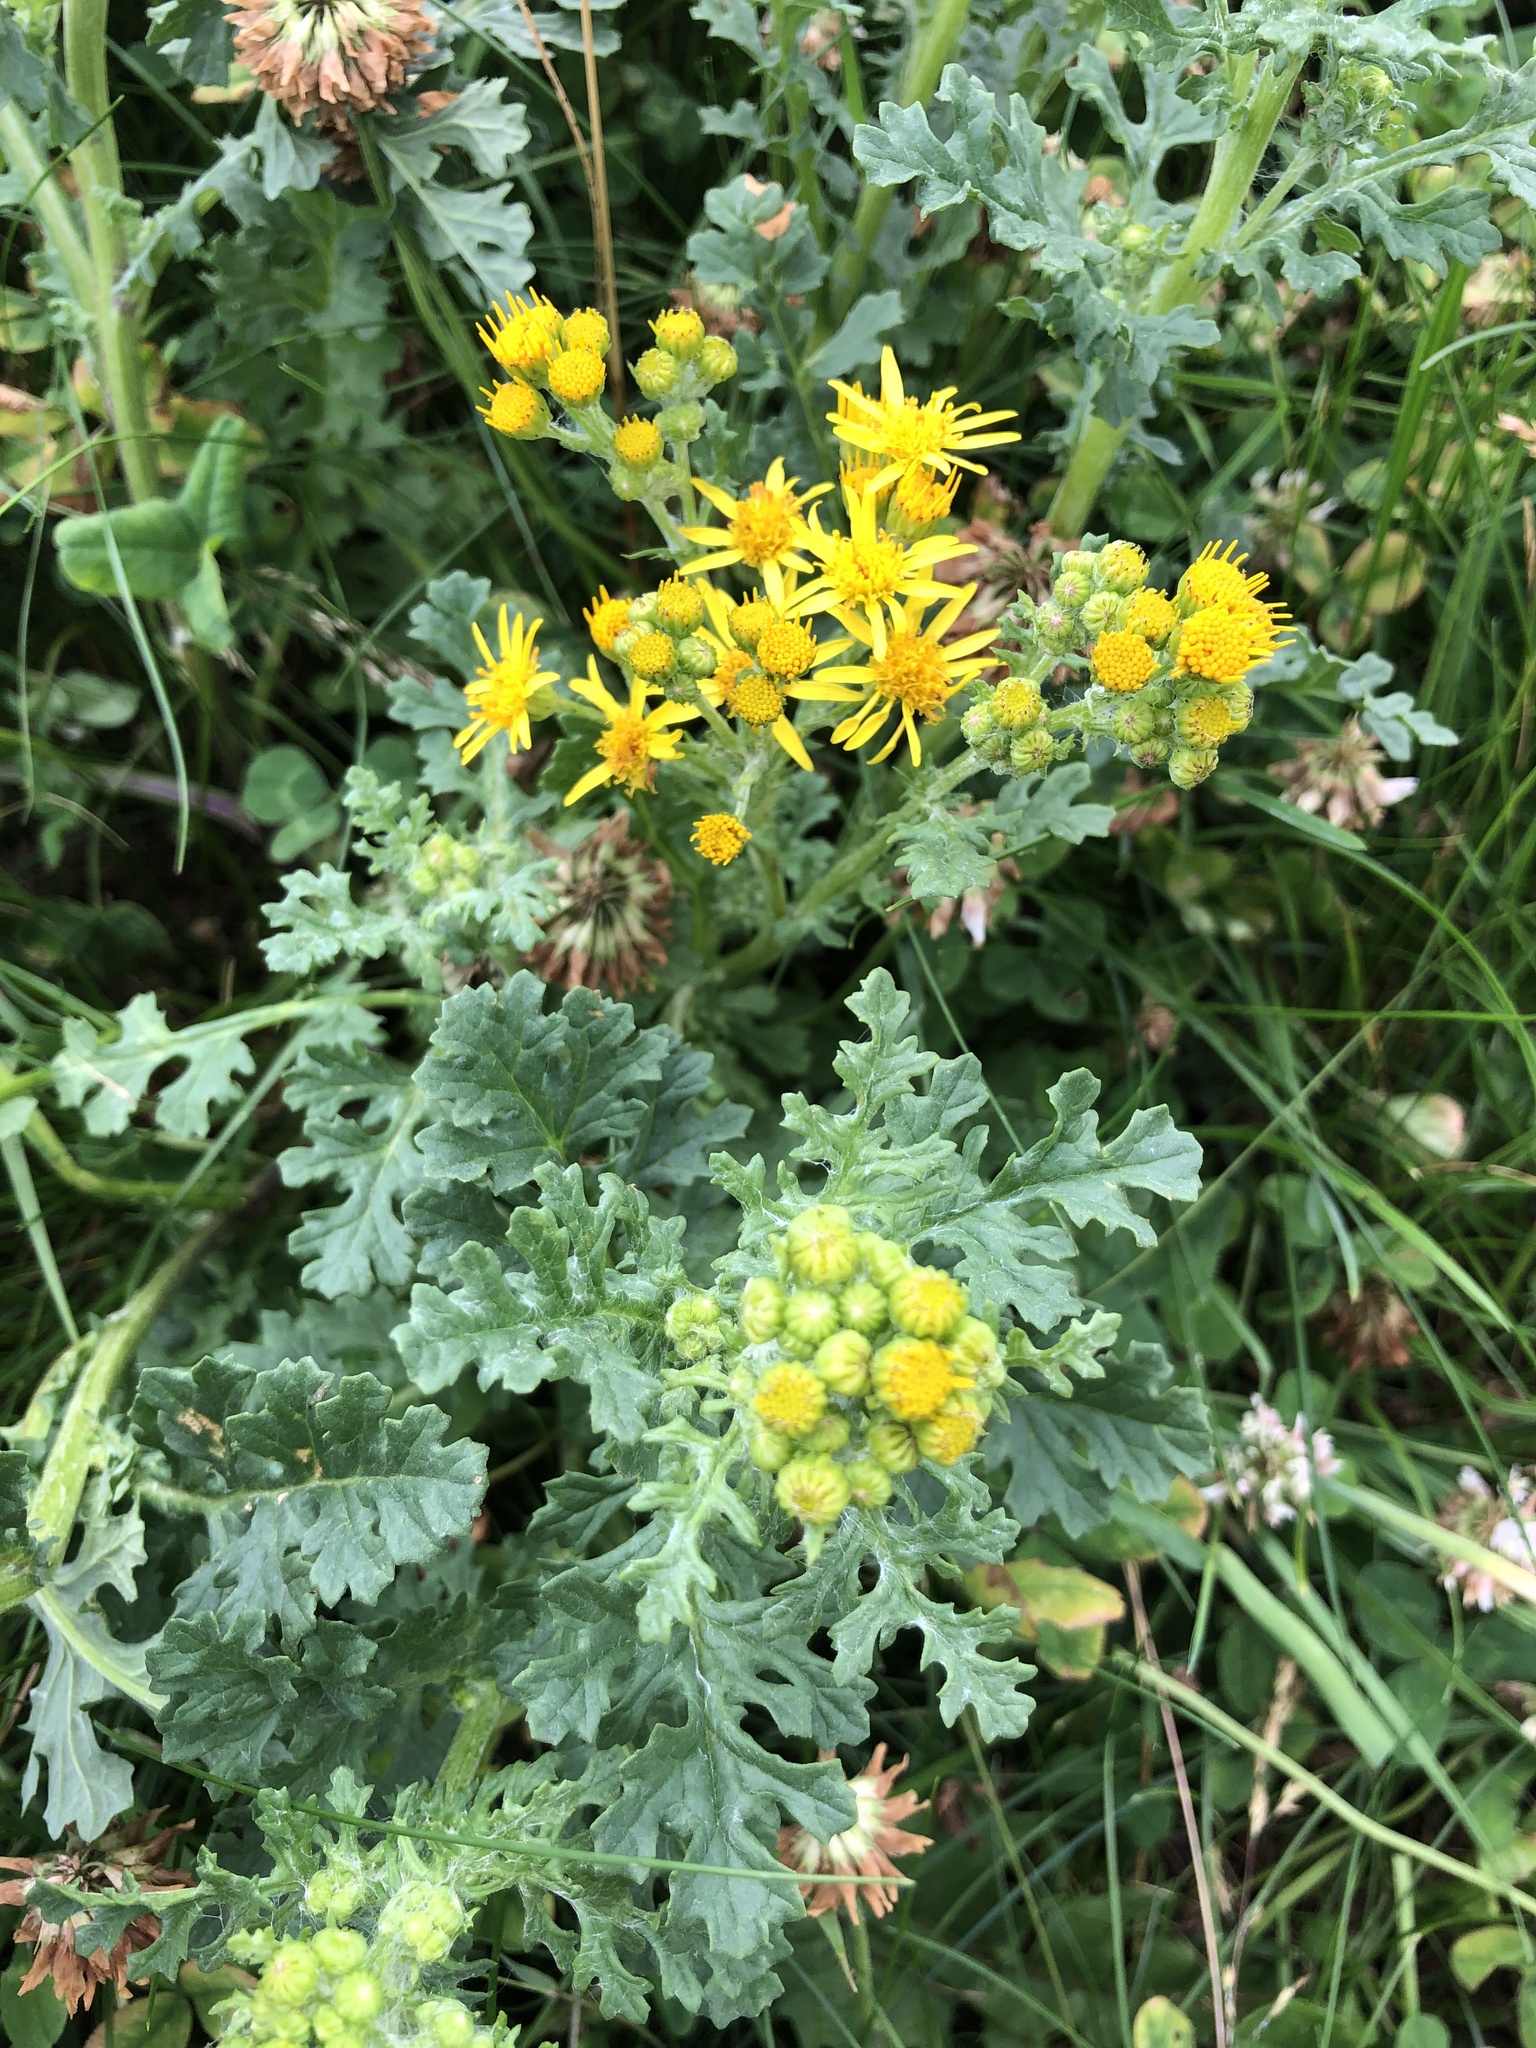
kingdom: Plantae
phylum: Tracheophyta
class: Magnoliopsida
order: Asterales
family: Asteraceae
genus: Jacobaea
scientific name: Jacobaea vulgaris
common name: Stinking willie
